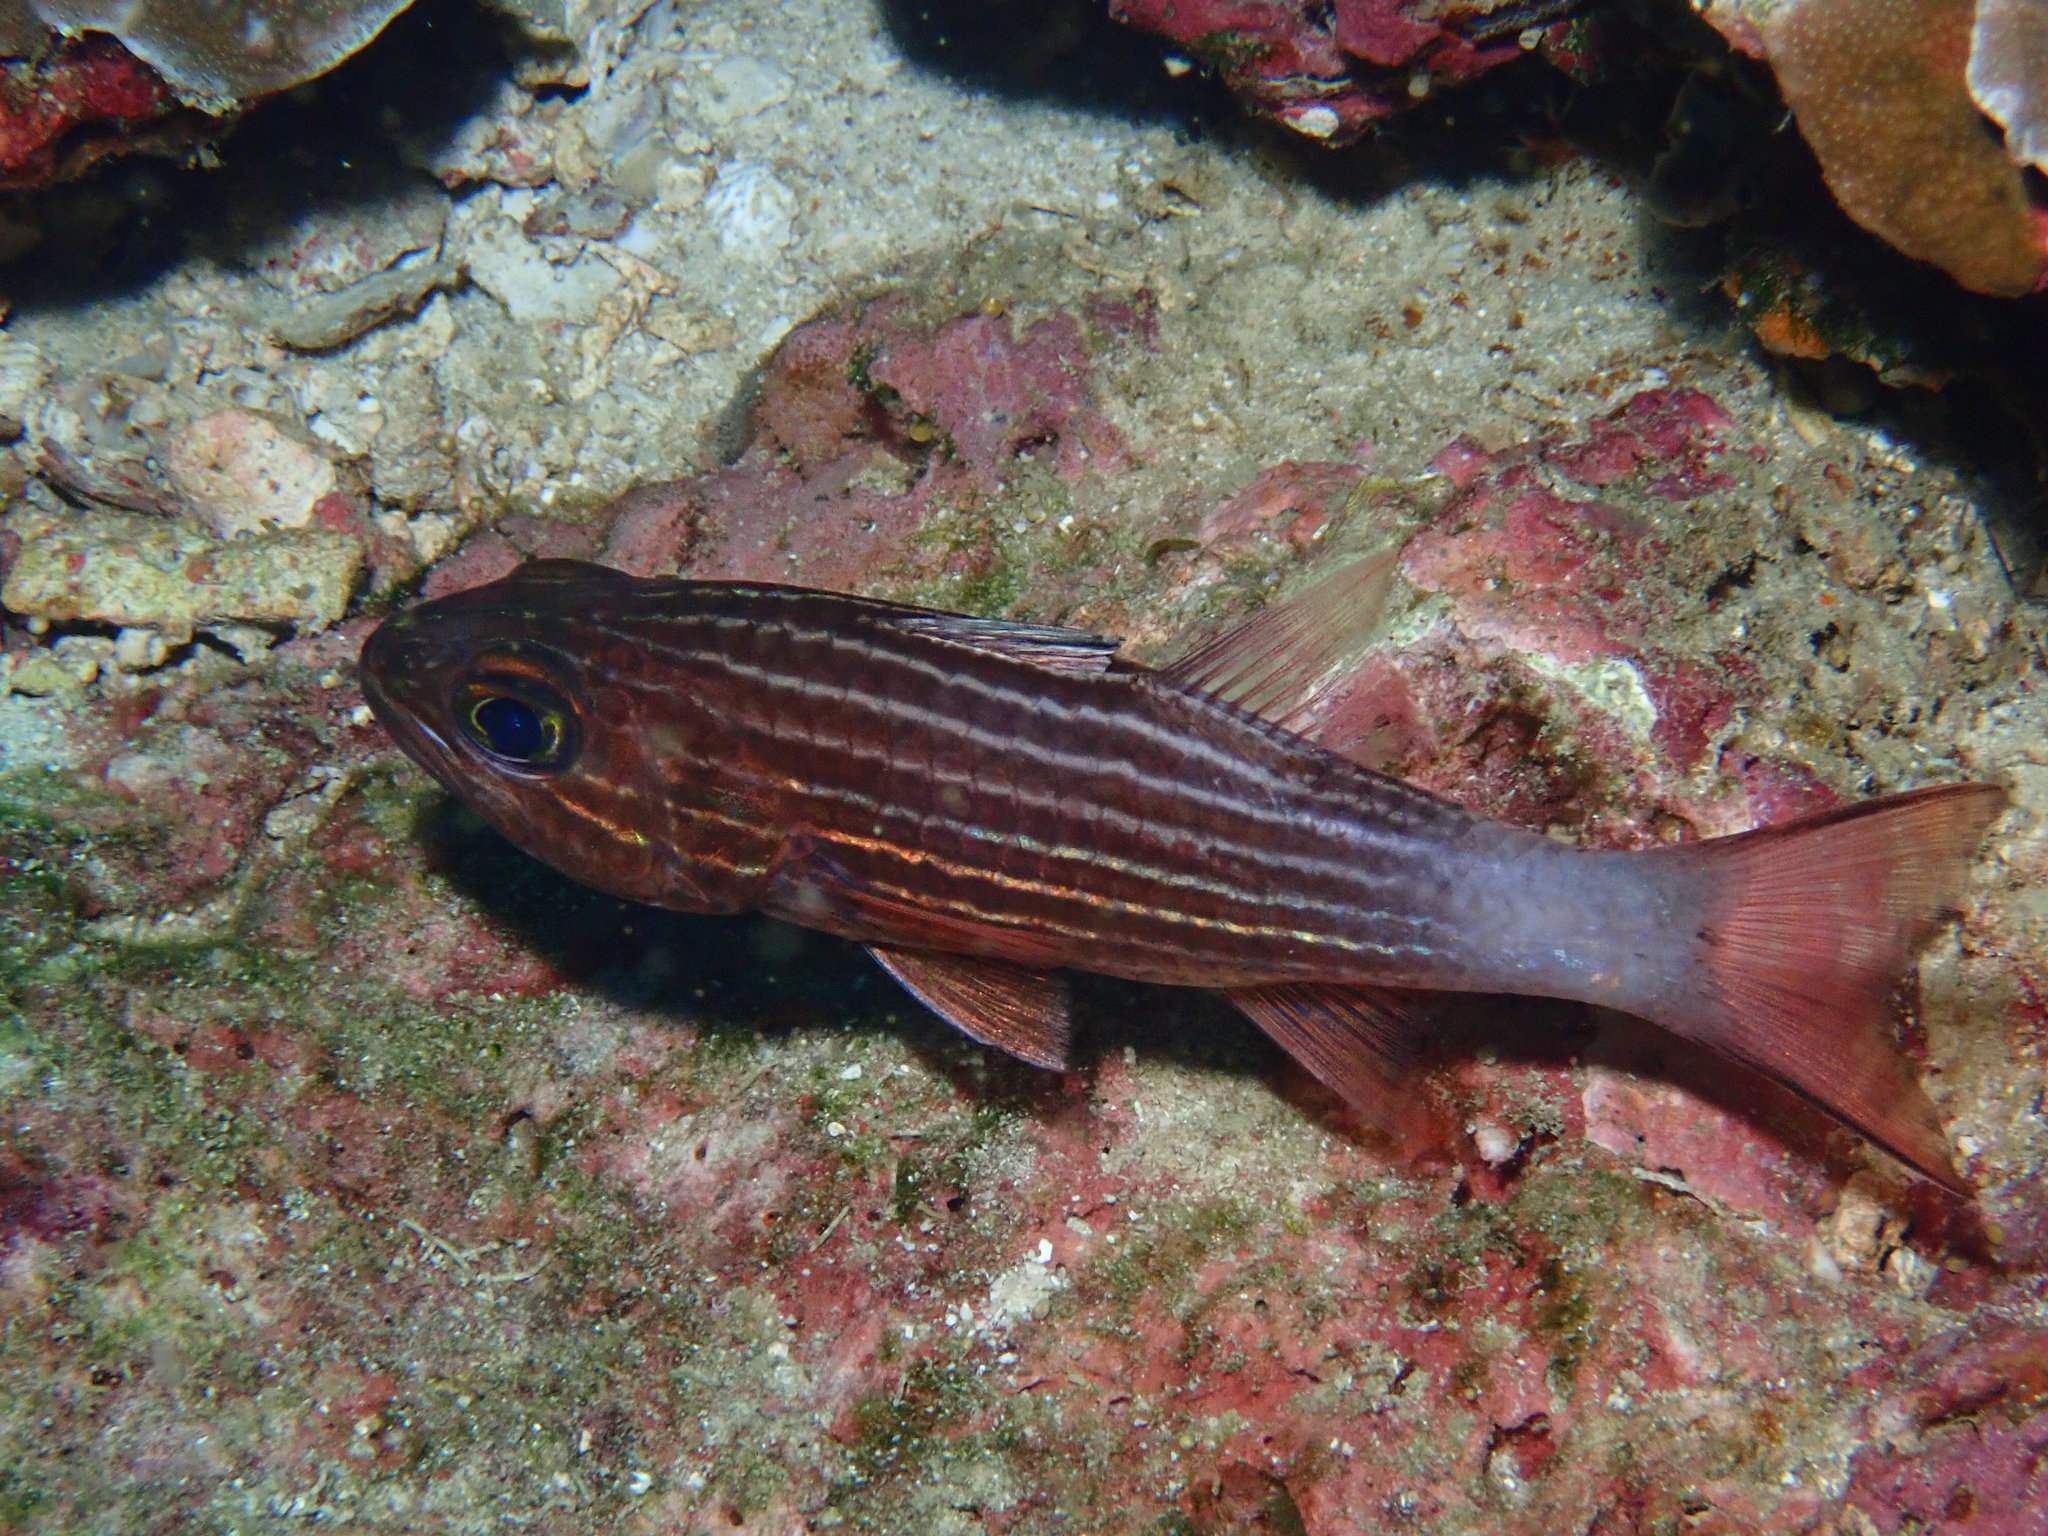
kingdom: Animalia
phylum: Chordata
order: Perciformes
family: Apogonidae
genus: Cheilodipterus
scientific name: Cheilodipterus macrodon
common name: Eight-lined cardinalfish
